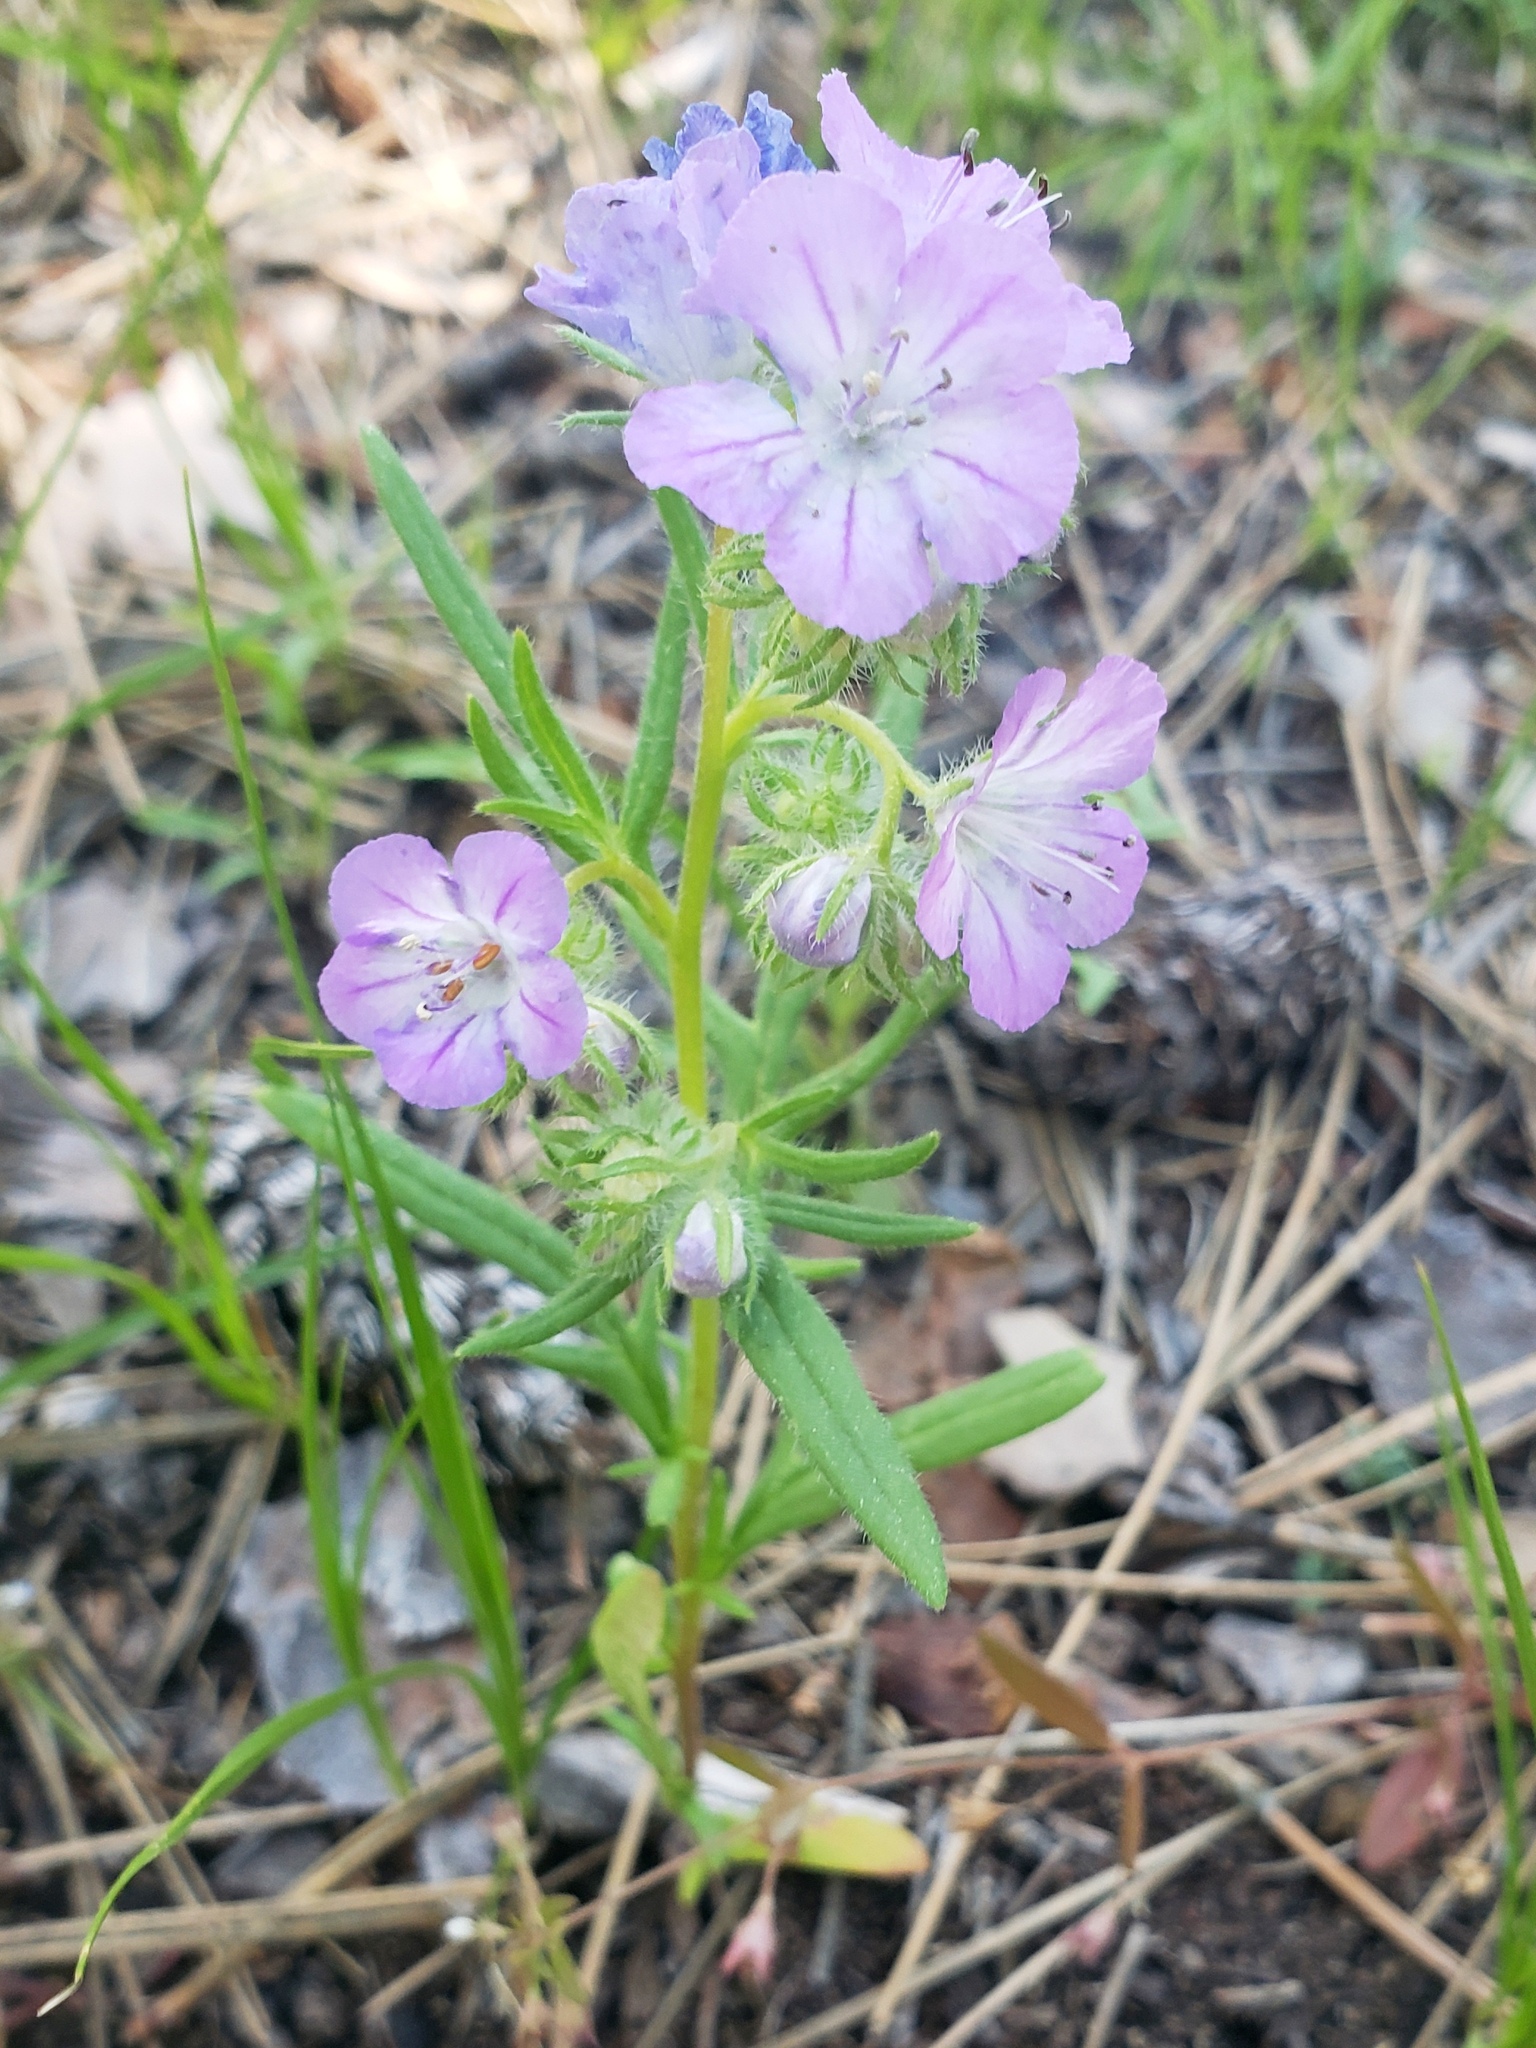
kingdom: Plantae
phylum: Tracheophyta
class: Magnoliopsida
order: Boraginales
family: Hydrophyllaceae
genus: Phacelia
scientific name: Phacelia linearis
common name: Linear-leaved phacelia
